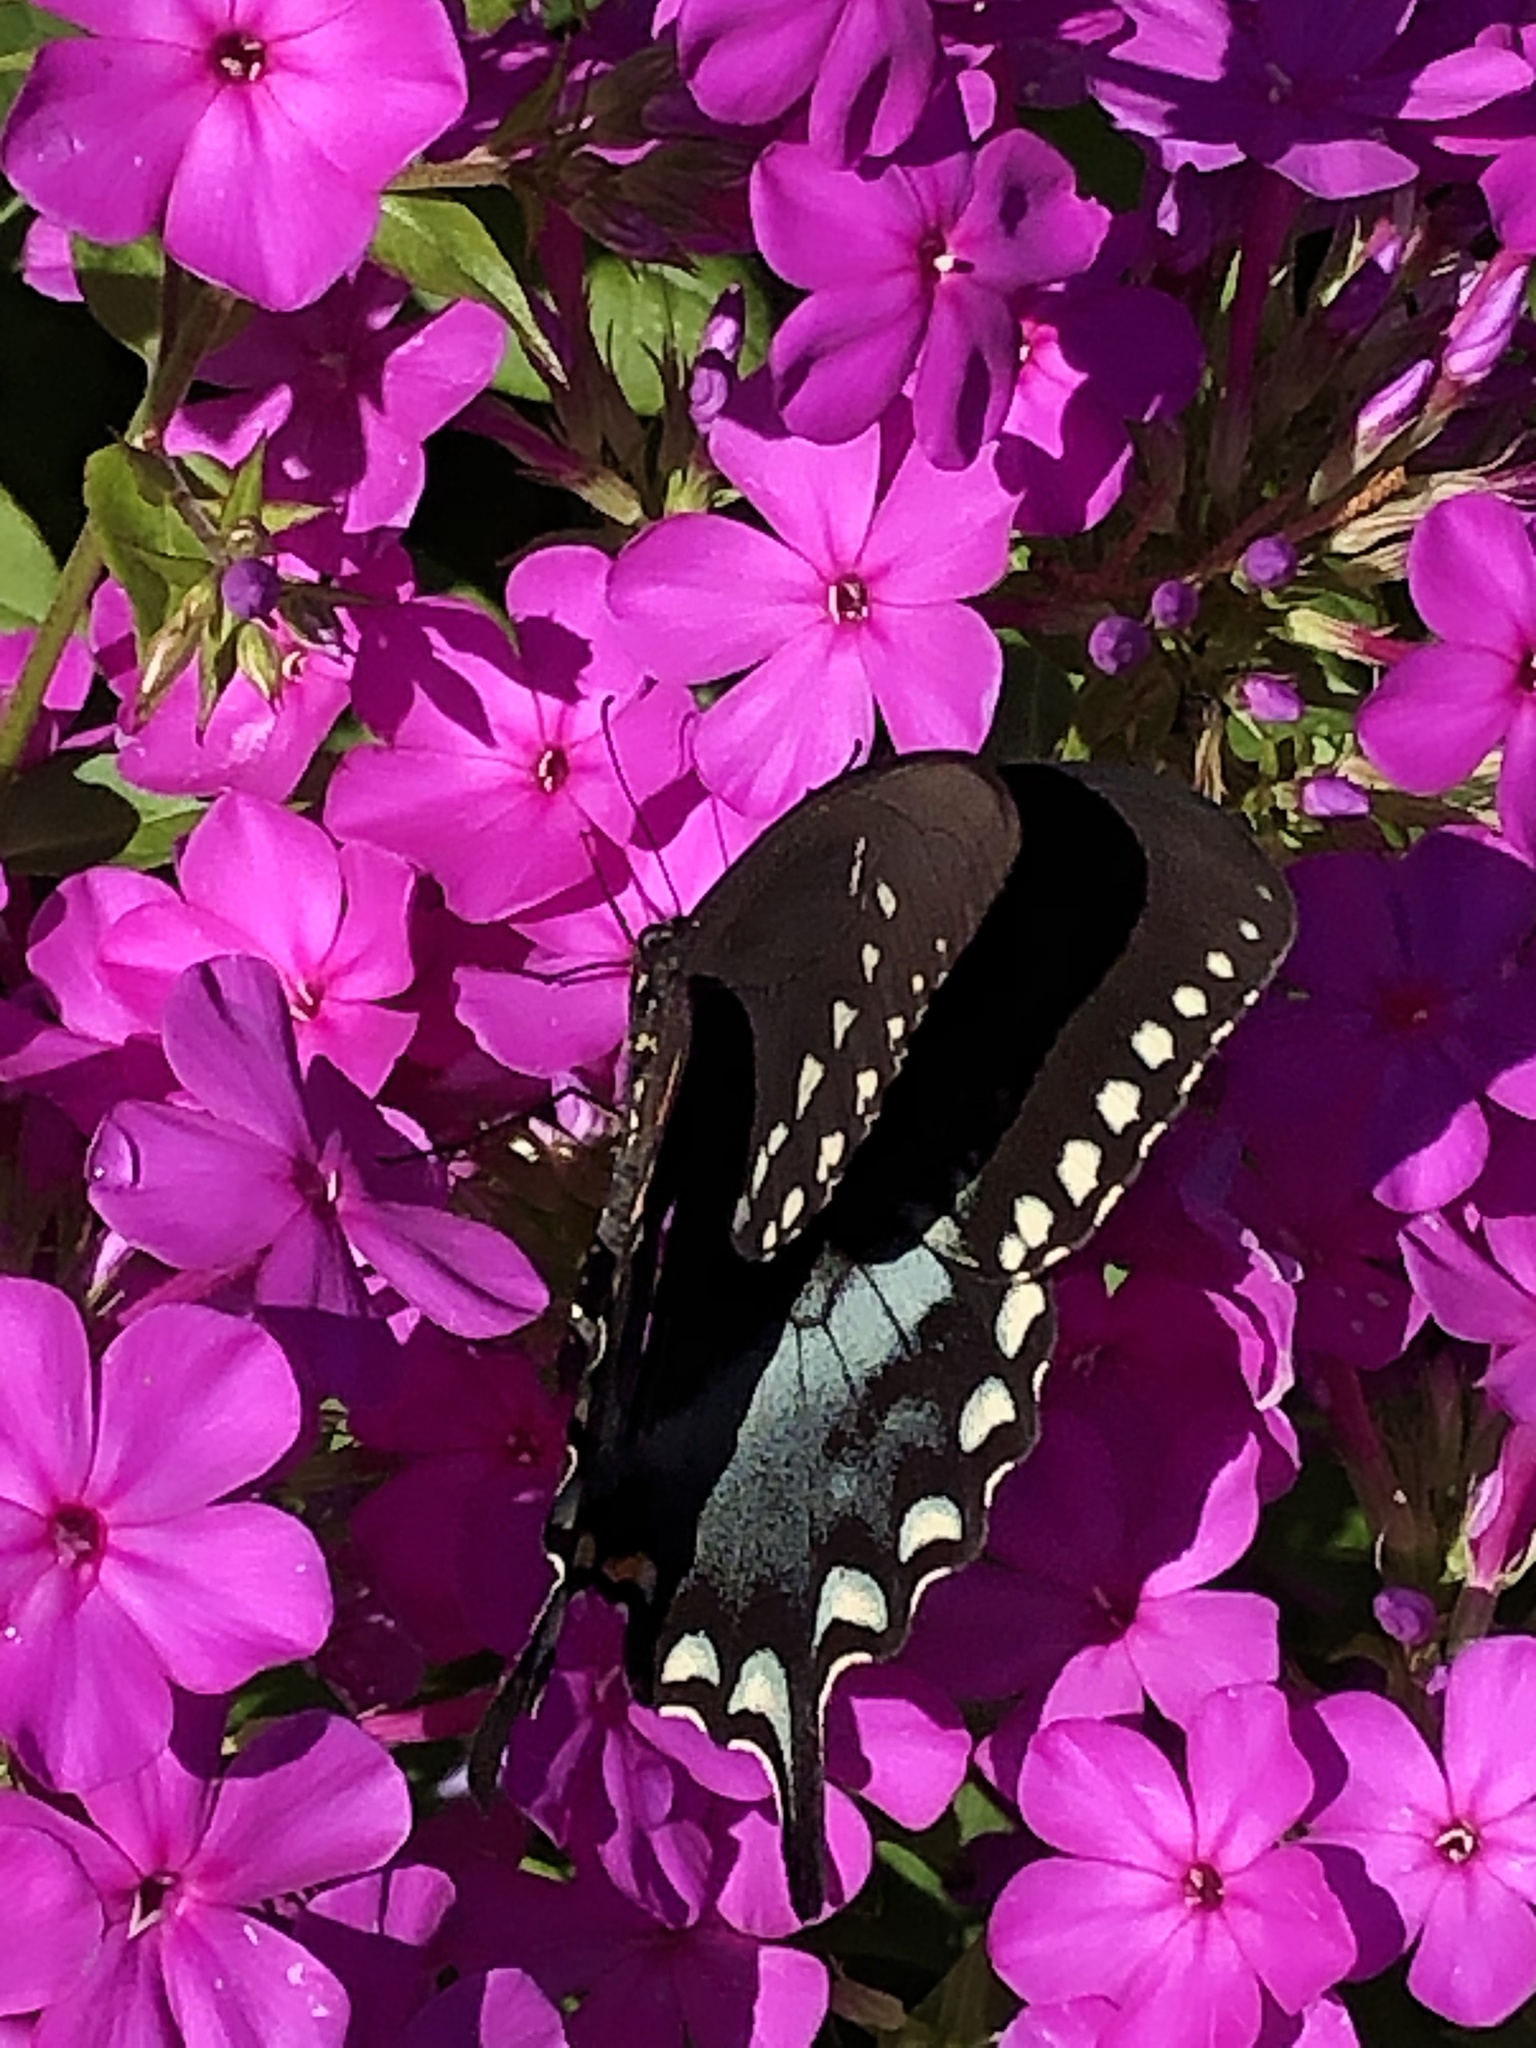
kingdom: Animalia
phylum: Arthropoda
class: Insecta
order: Lepidoptera
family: Papilionidae
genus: Papilio
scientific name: Papilio troilus
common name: Spicebush swallowtail
